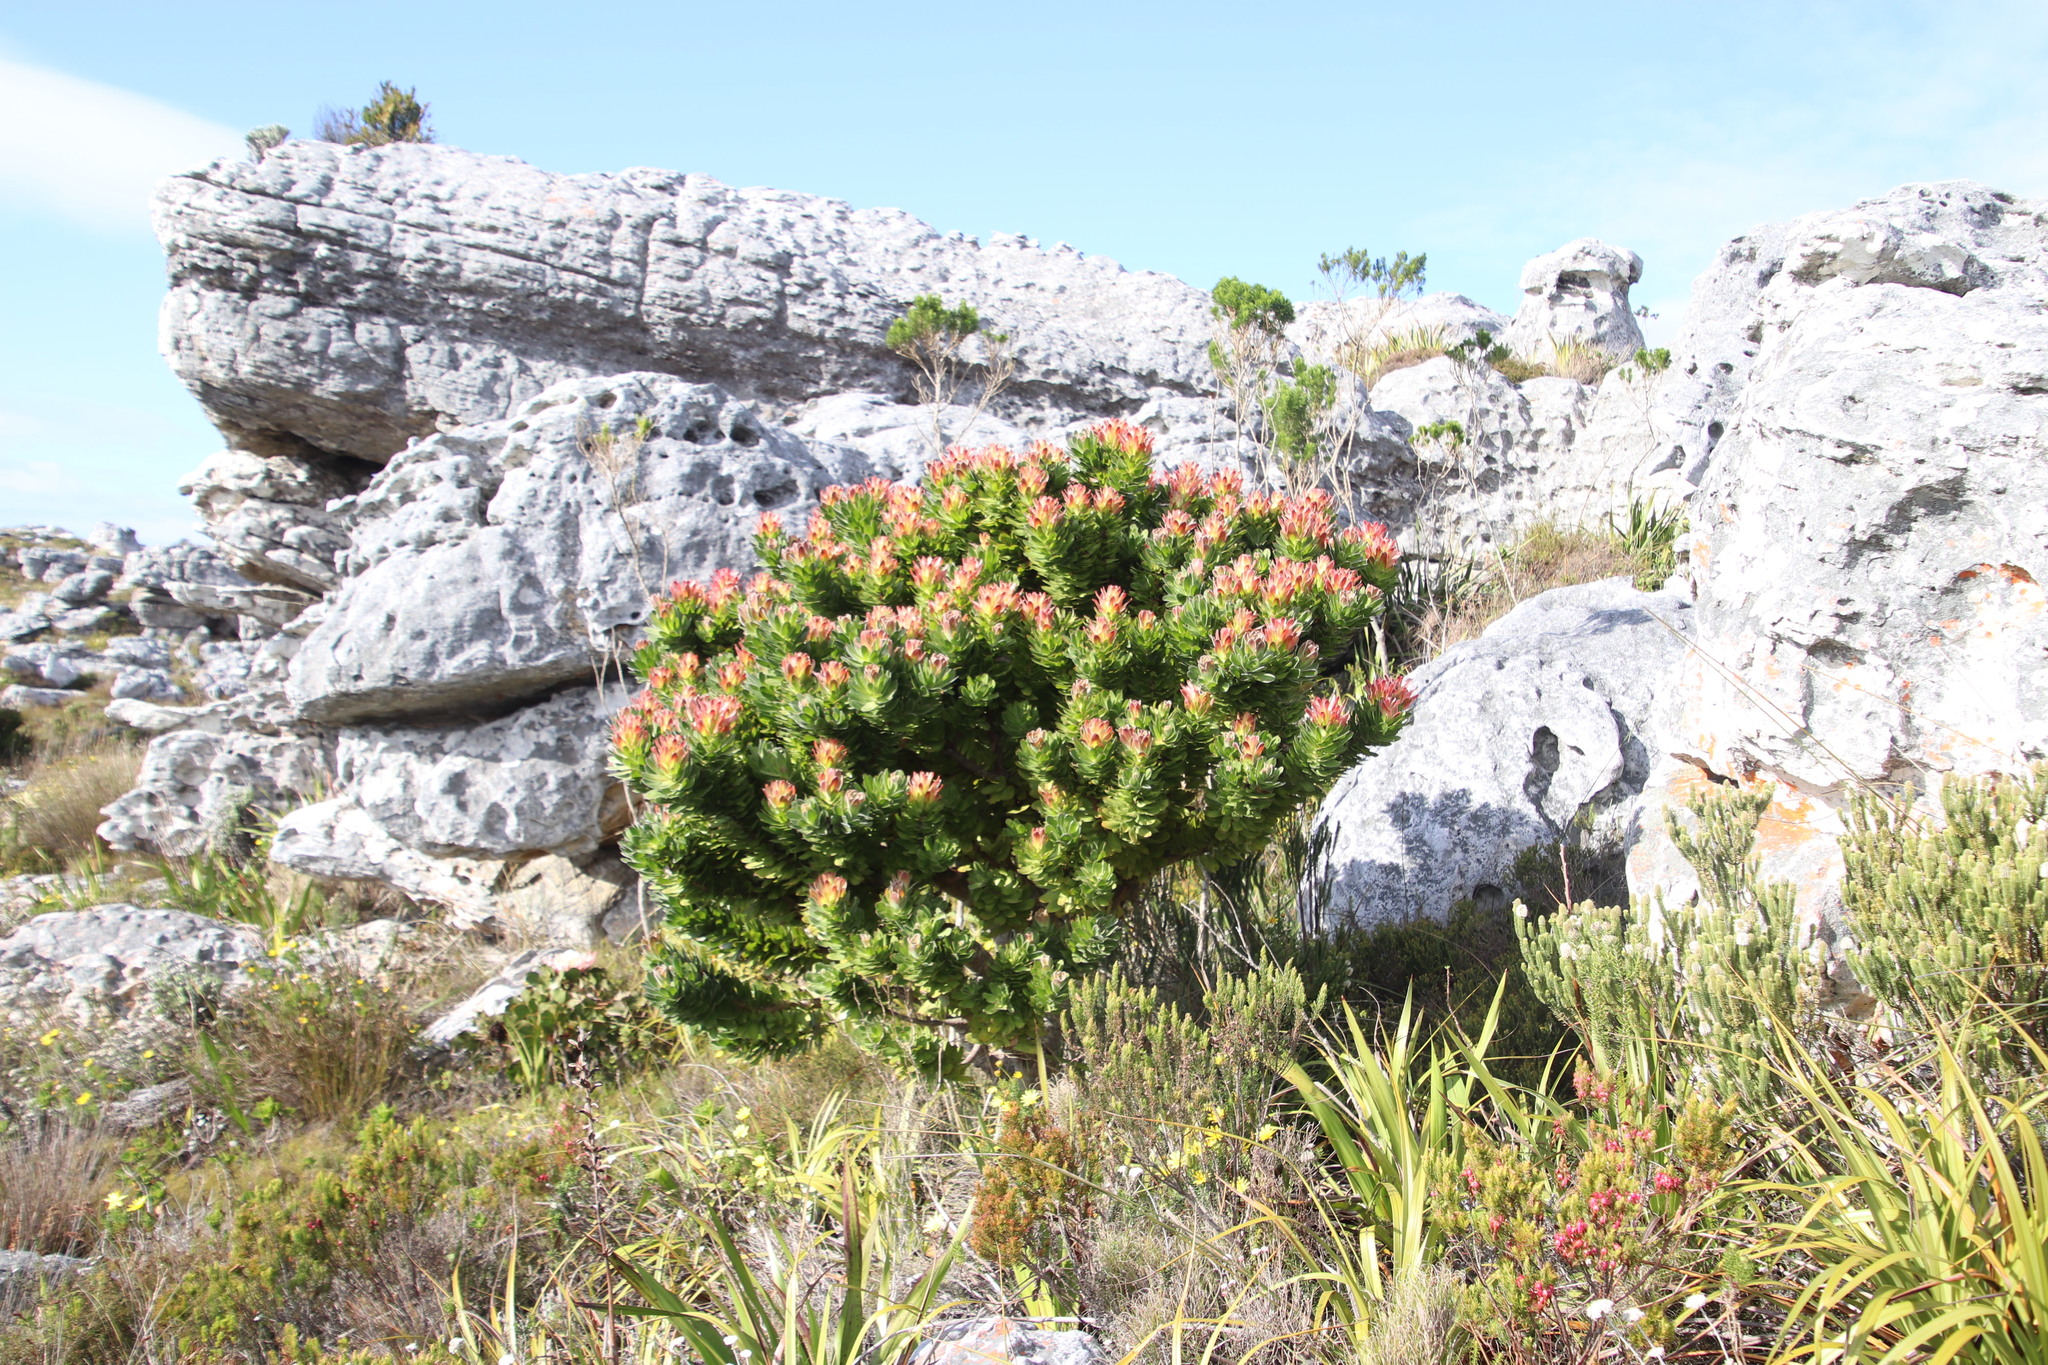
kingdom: Plantae
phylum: Tracheophyta
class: Magnoliopsida
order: Proteales
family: Proteaceae
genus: Mimetes
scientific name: Mimetes fimbriifolius
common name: Fringed bottlebrush
